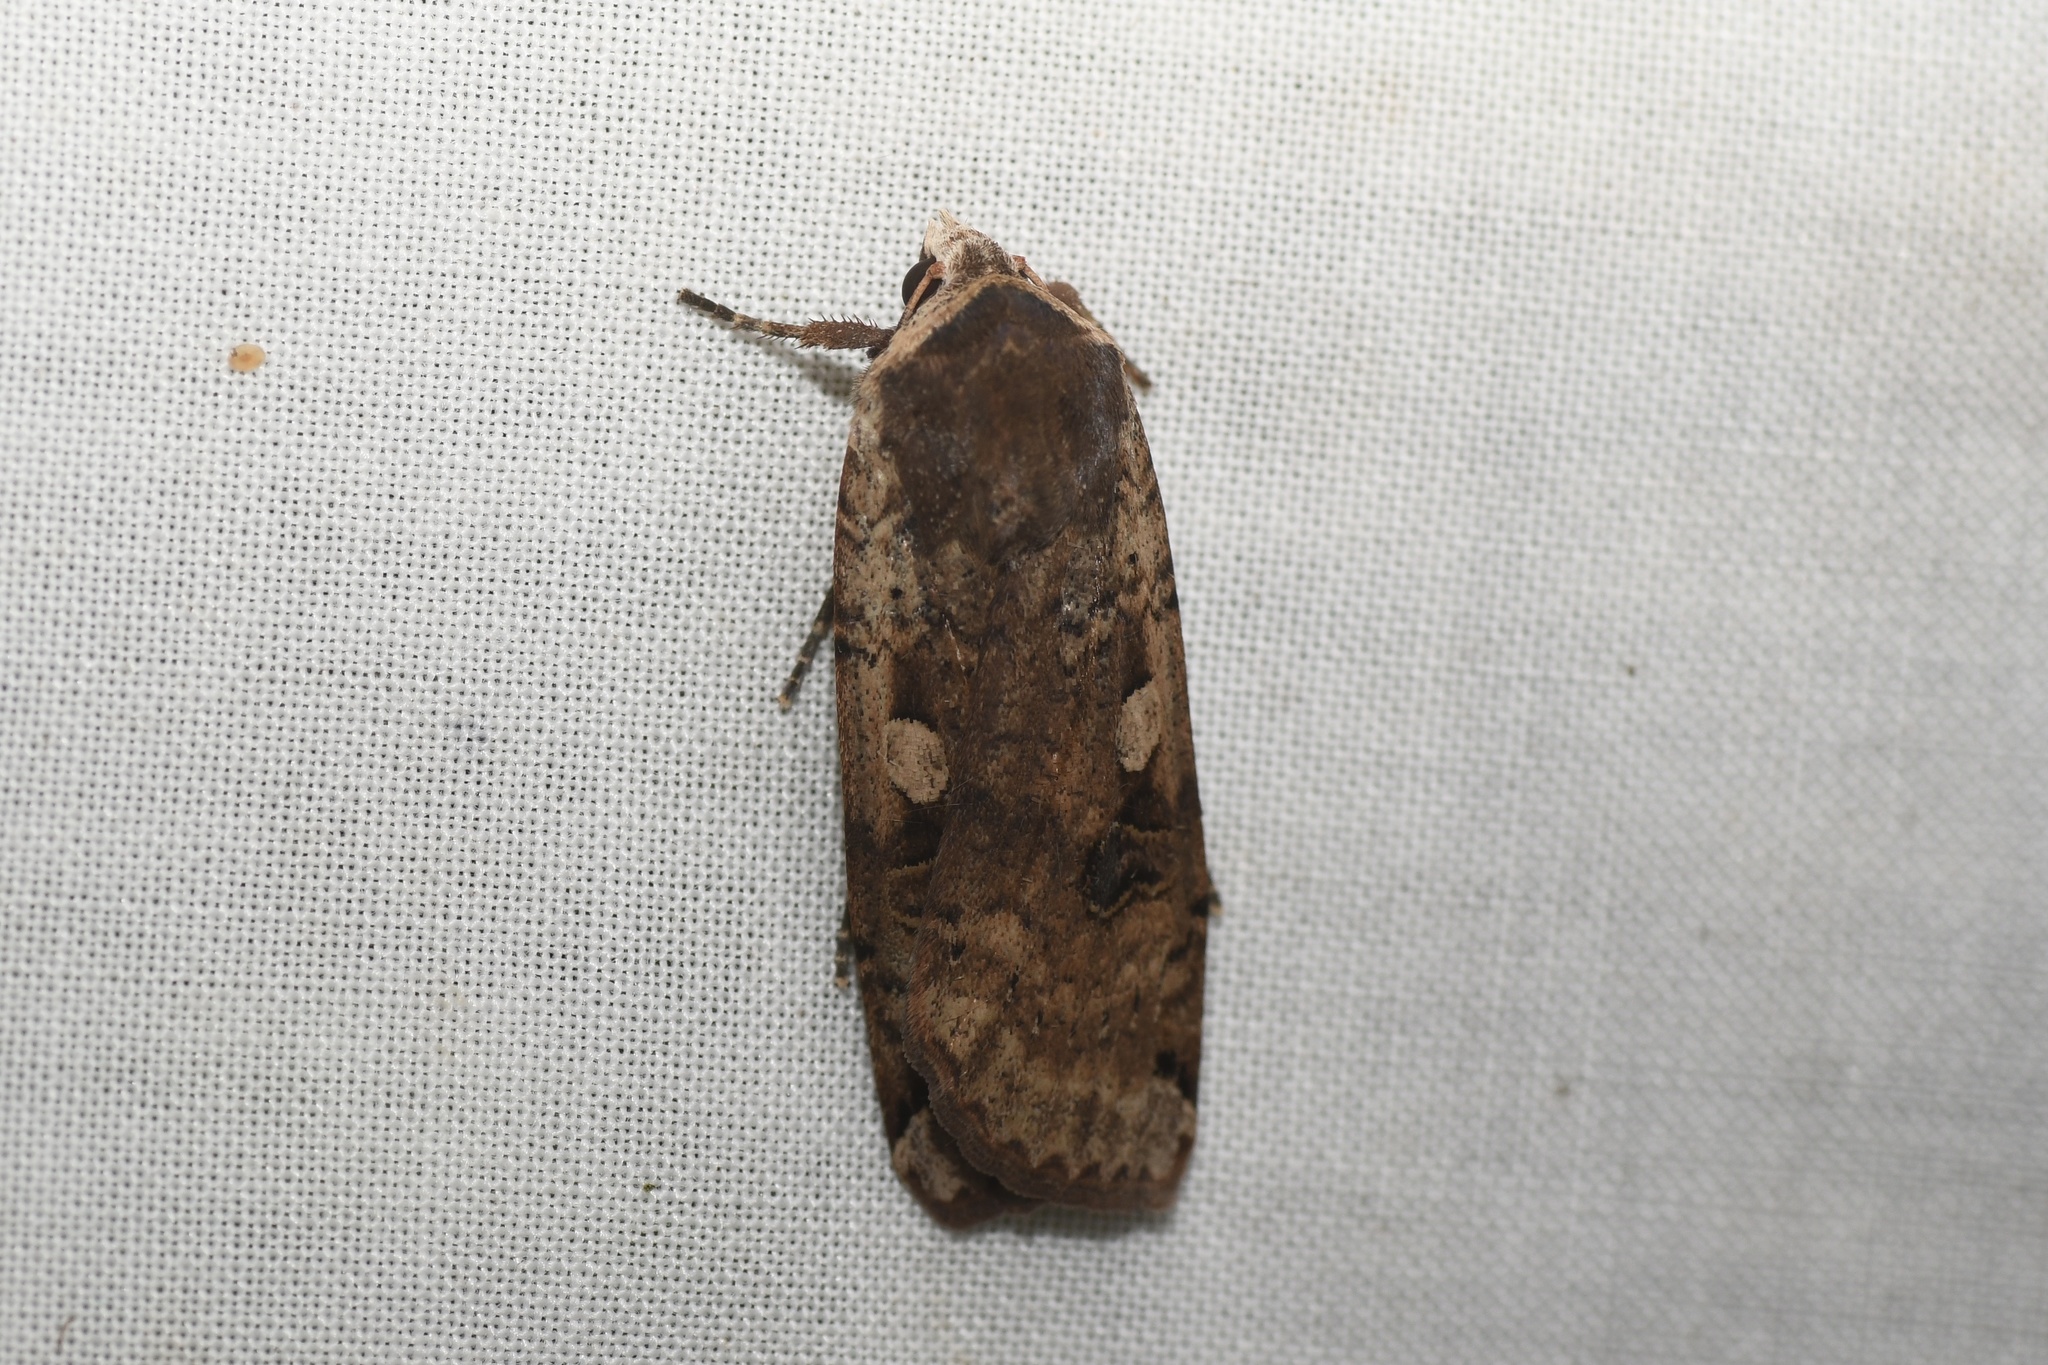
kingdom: Animalia
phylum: Arthropoda
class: Insecta
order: Lepidoptera
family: Noctuidae
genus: Noctua
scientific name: Noctua pronuba
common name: Large yellow underwing
